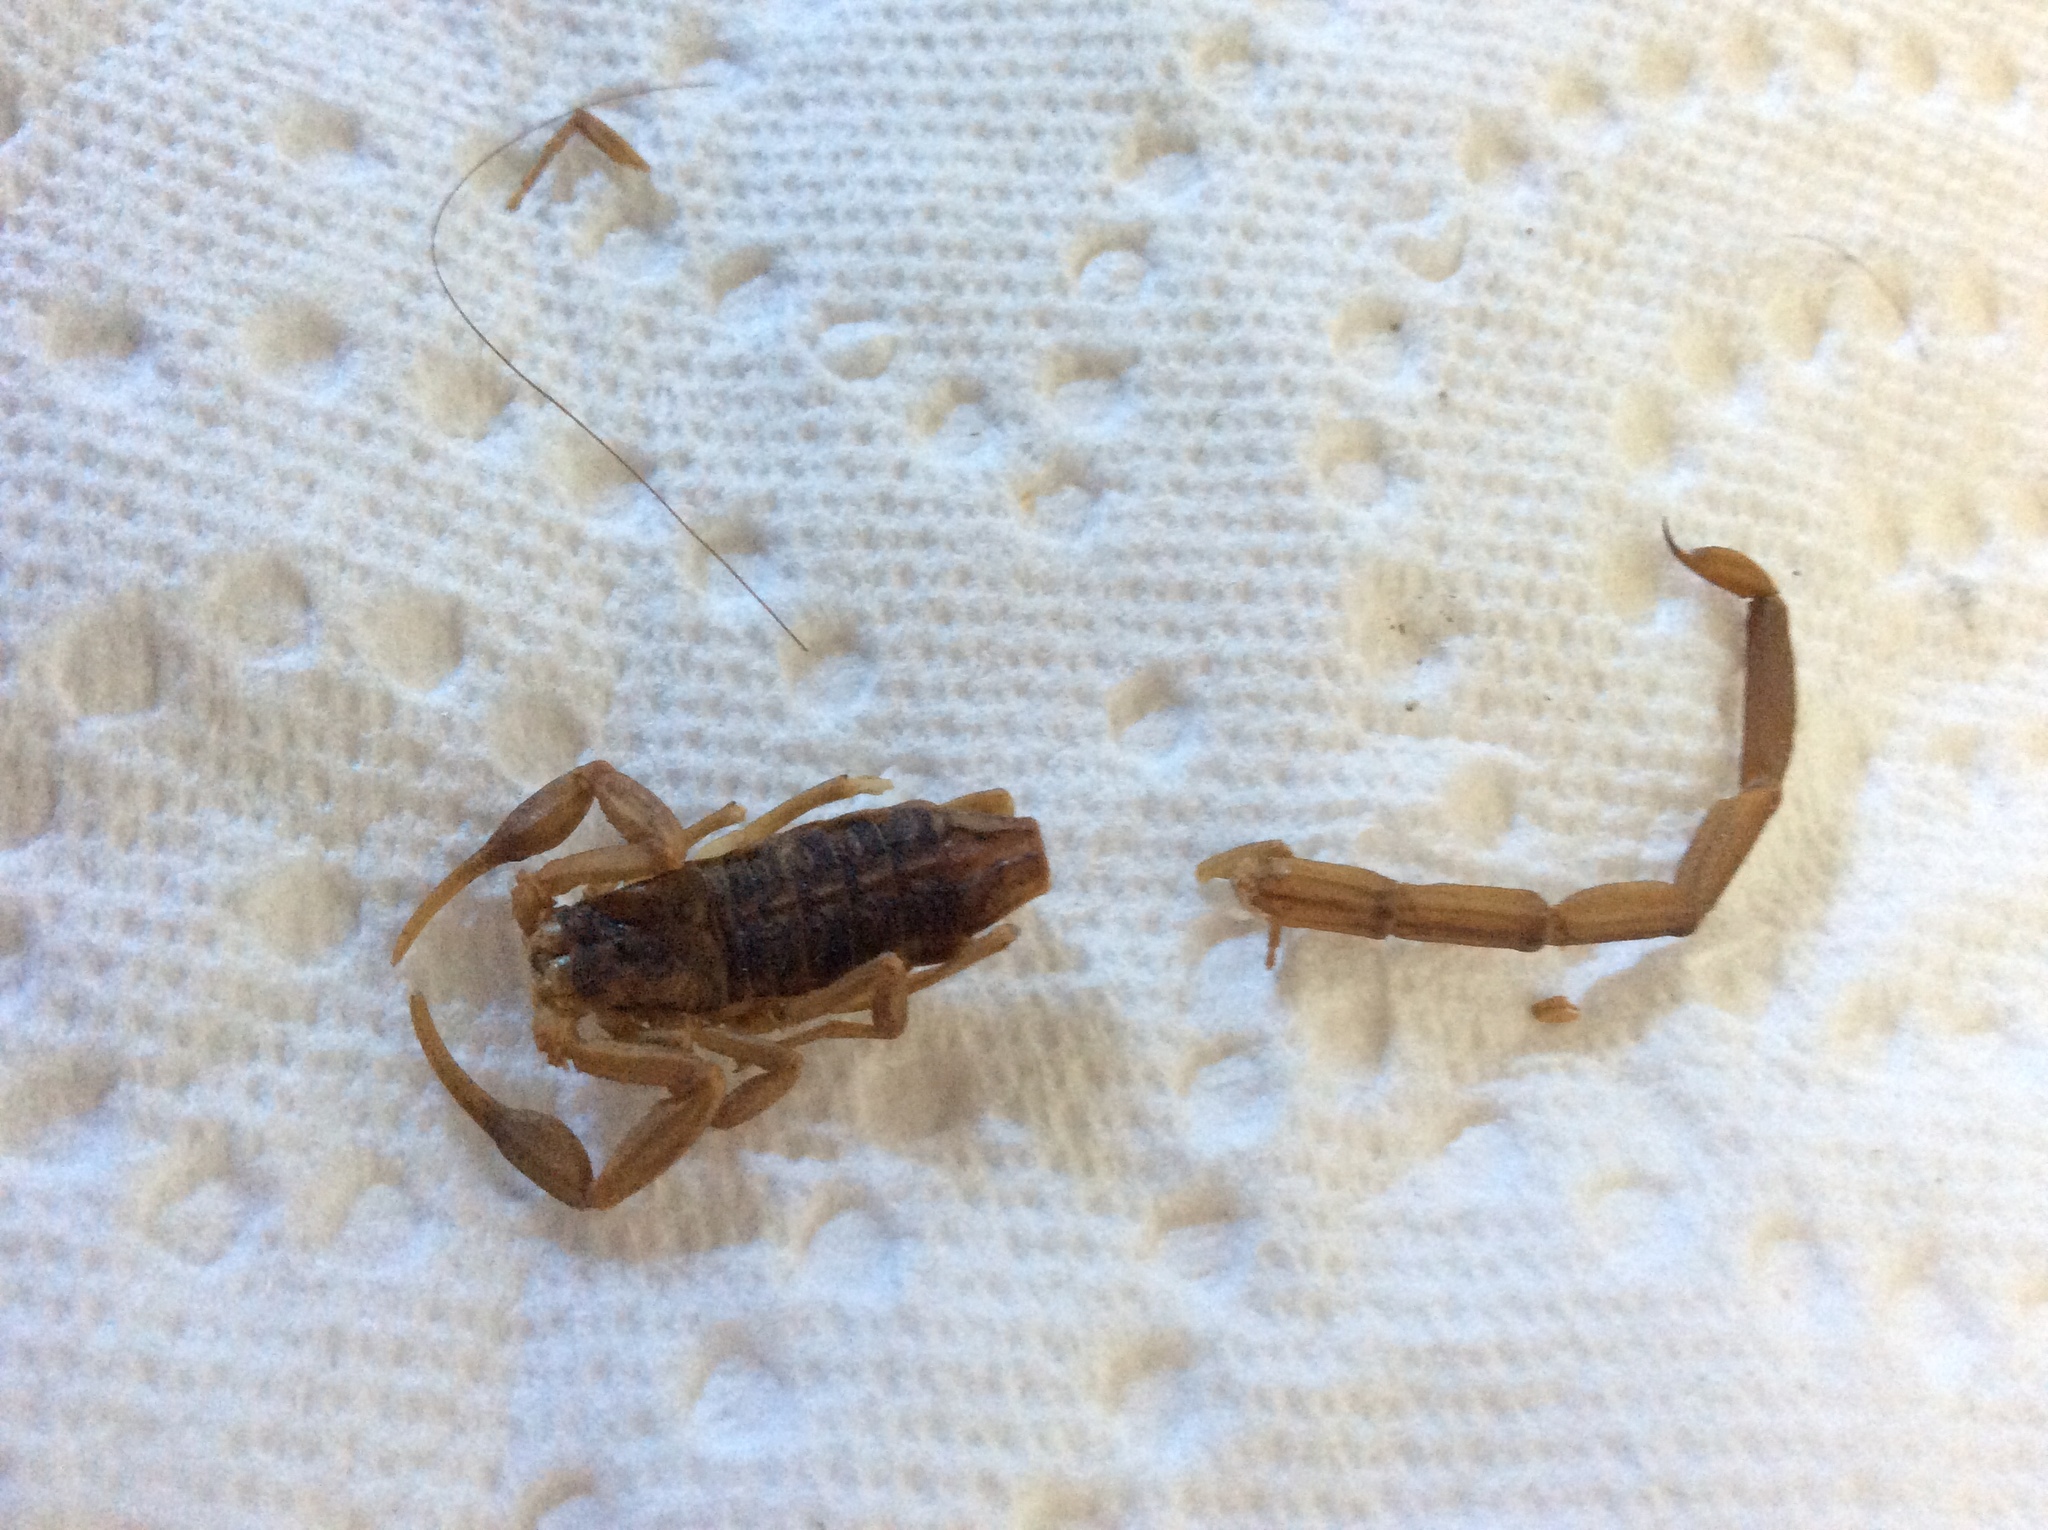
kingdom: Animalia
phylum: Arthropoda
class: Arachnida
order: Scorpiones
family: Buthidae
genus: Centruroides
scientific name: Centruroides vittatus
